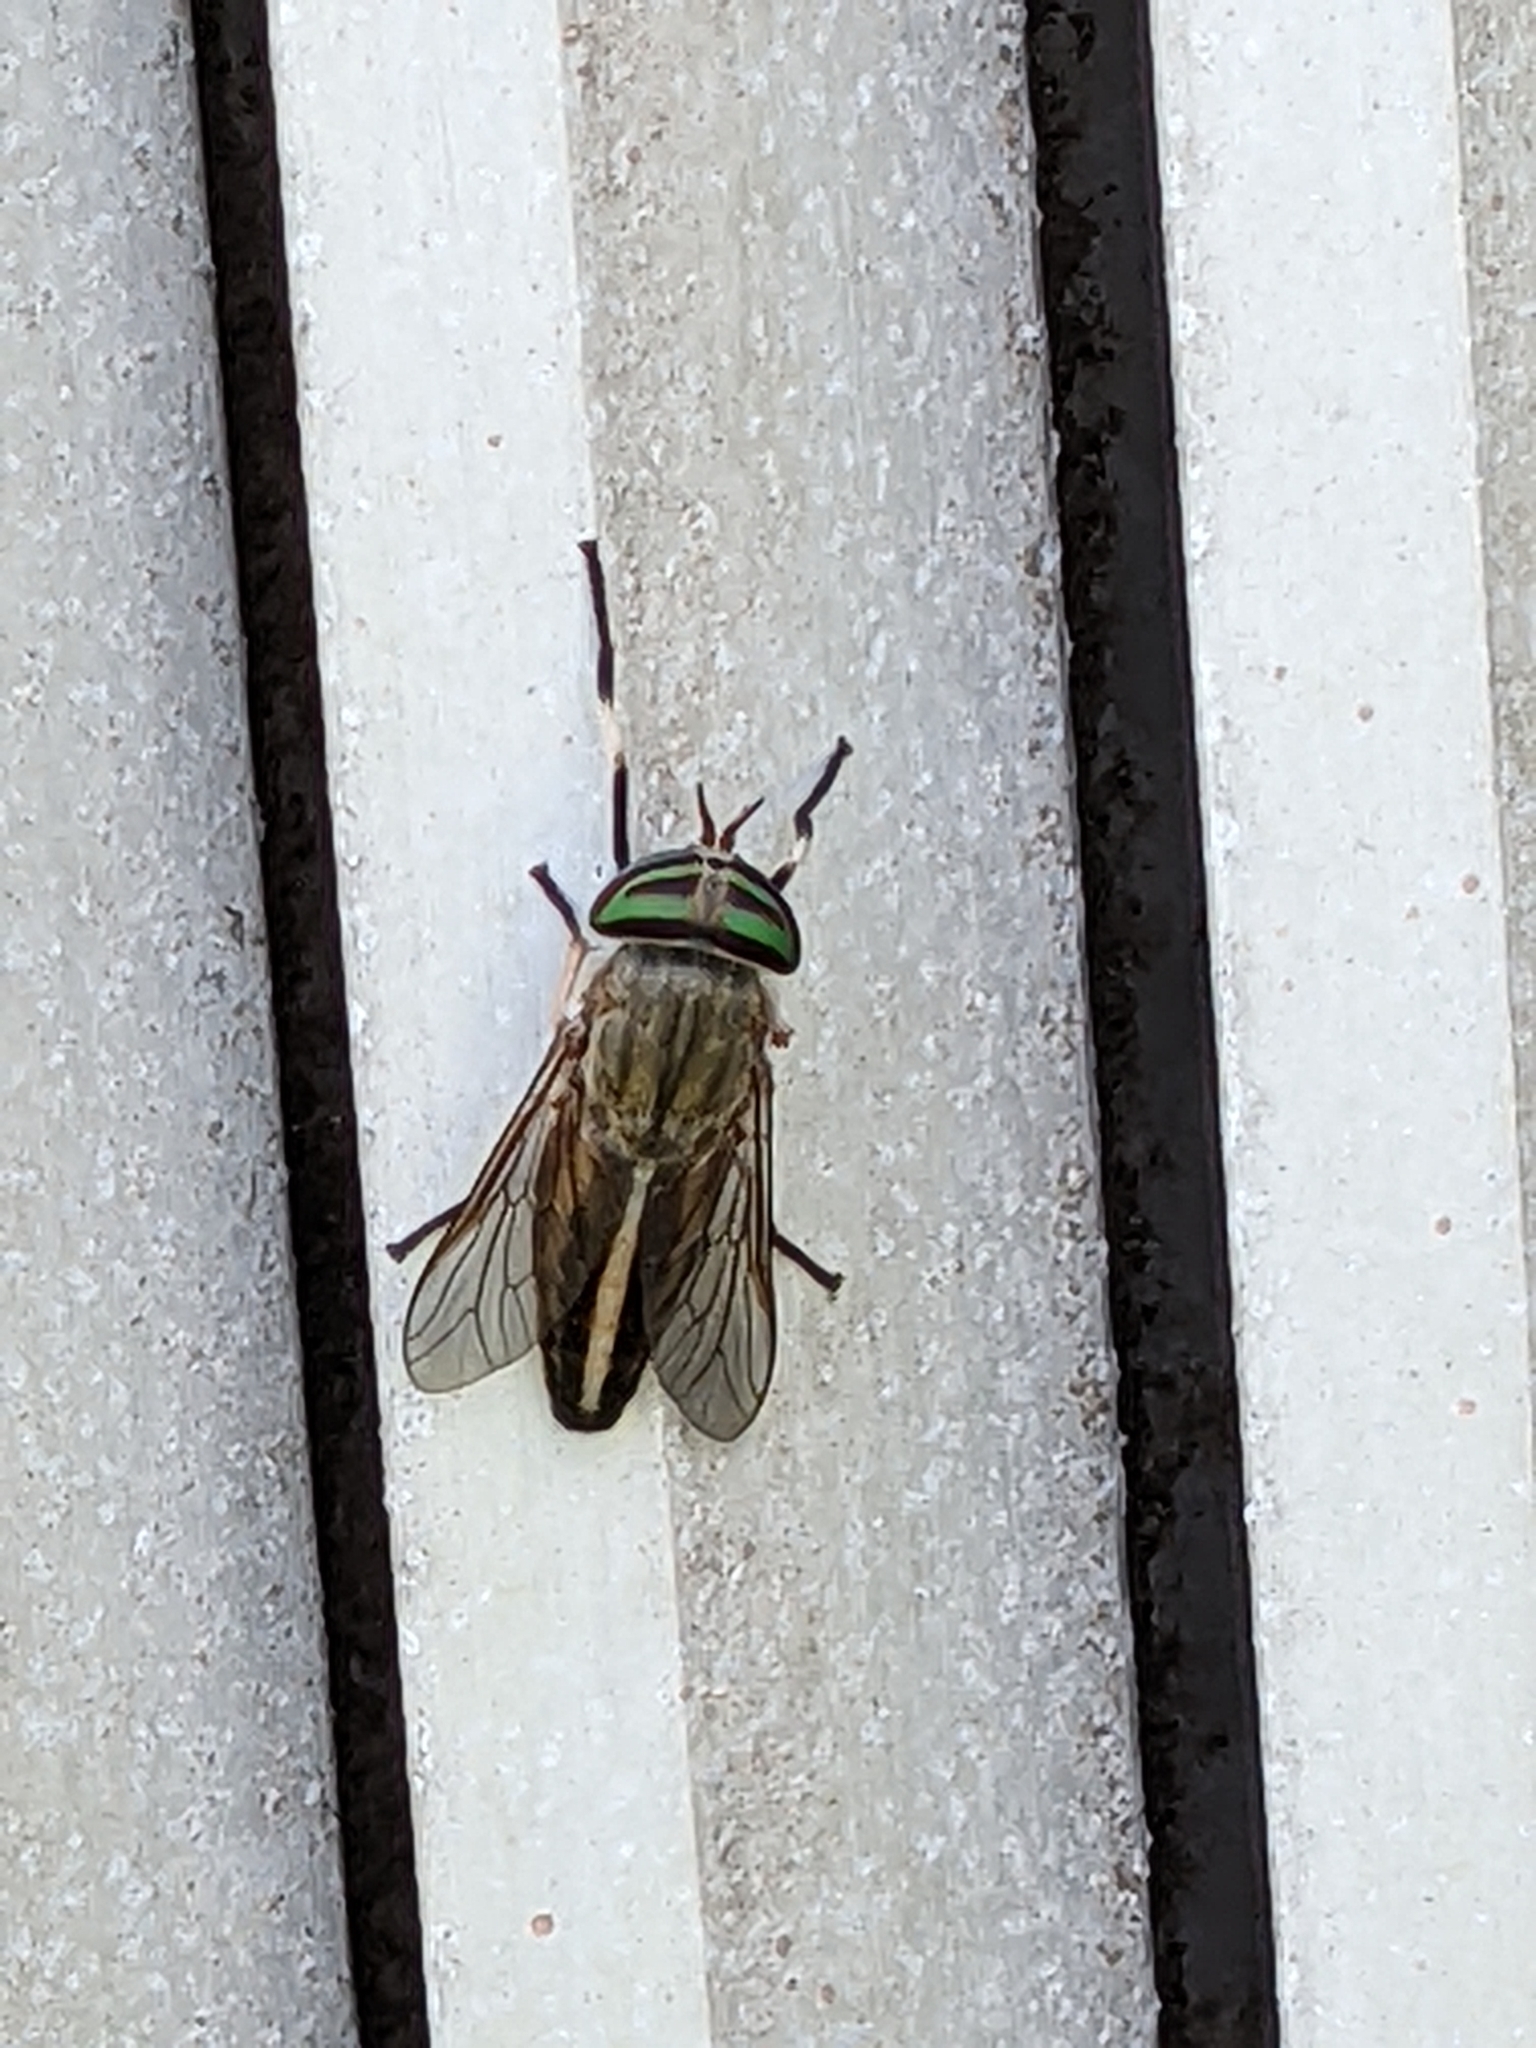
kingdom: Animalia
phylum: Arthropoda
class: Insecta
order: Diptera
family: Tabanidae
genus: Tabanus
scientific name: Tabanus lineola
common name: Striped horse fly
